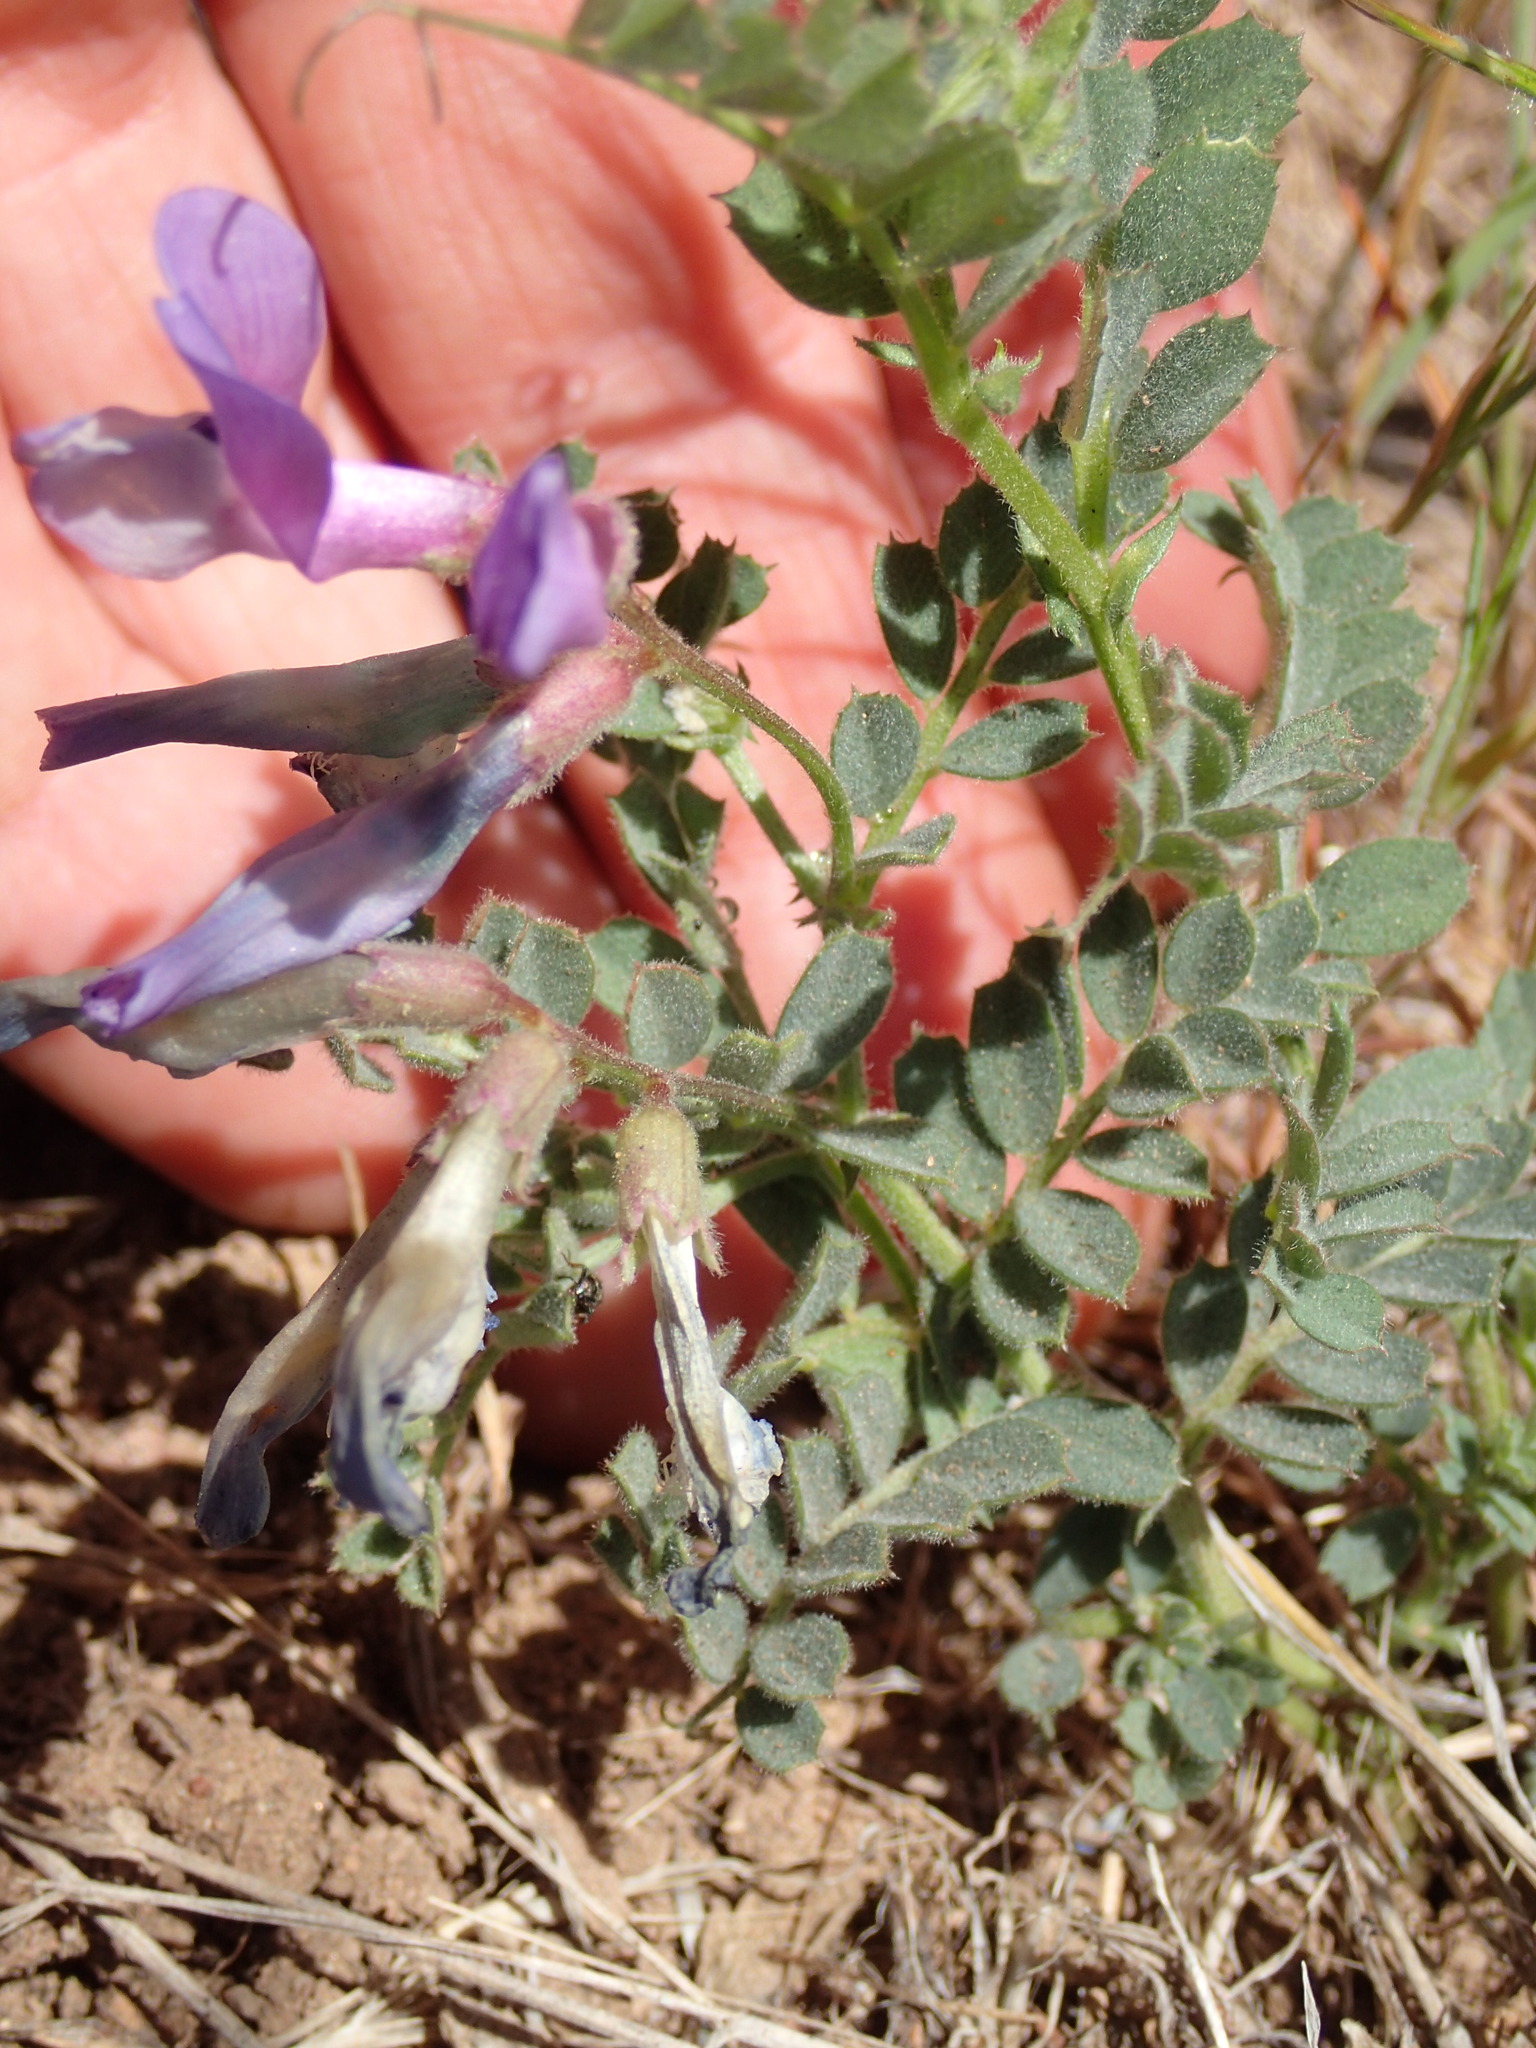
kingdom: Plantae
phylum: Tracheophyta
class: Magnoliopsida
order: Fabales
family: Fabaceae
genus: Astragalus
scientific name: Astragalus lentiginosus
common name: Freckled milkvetch
